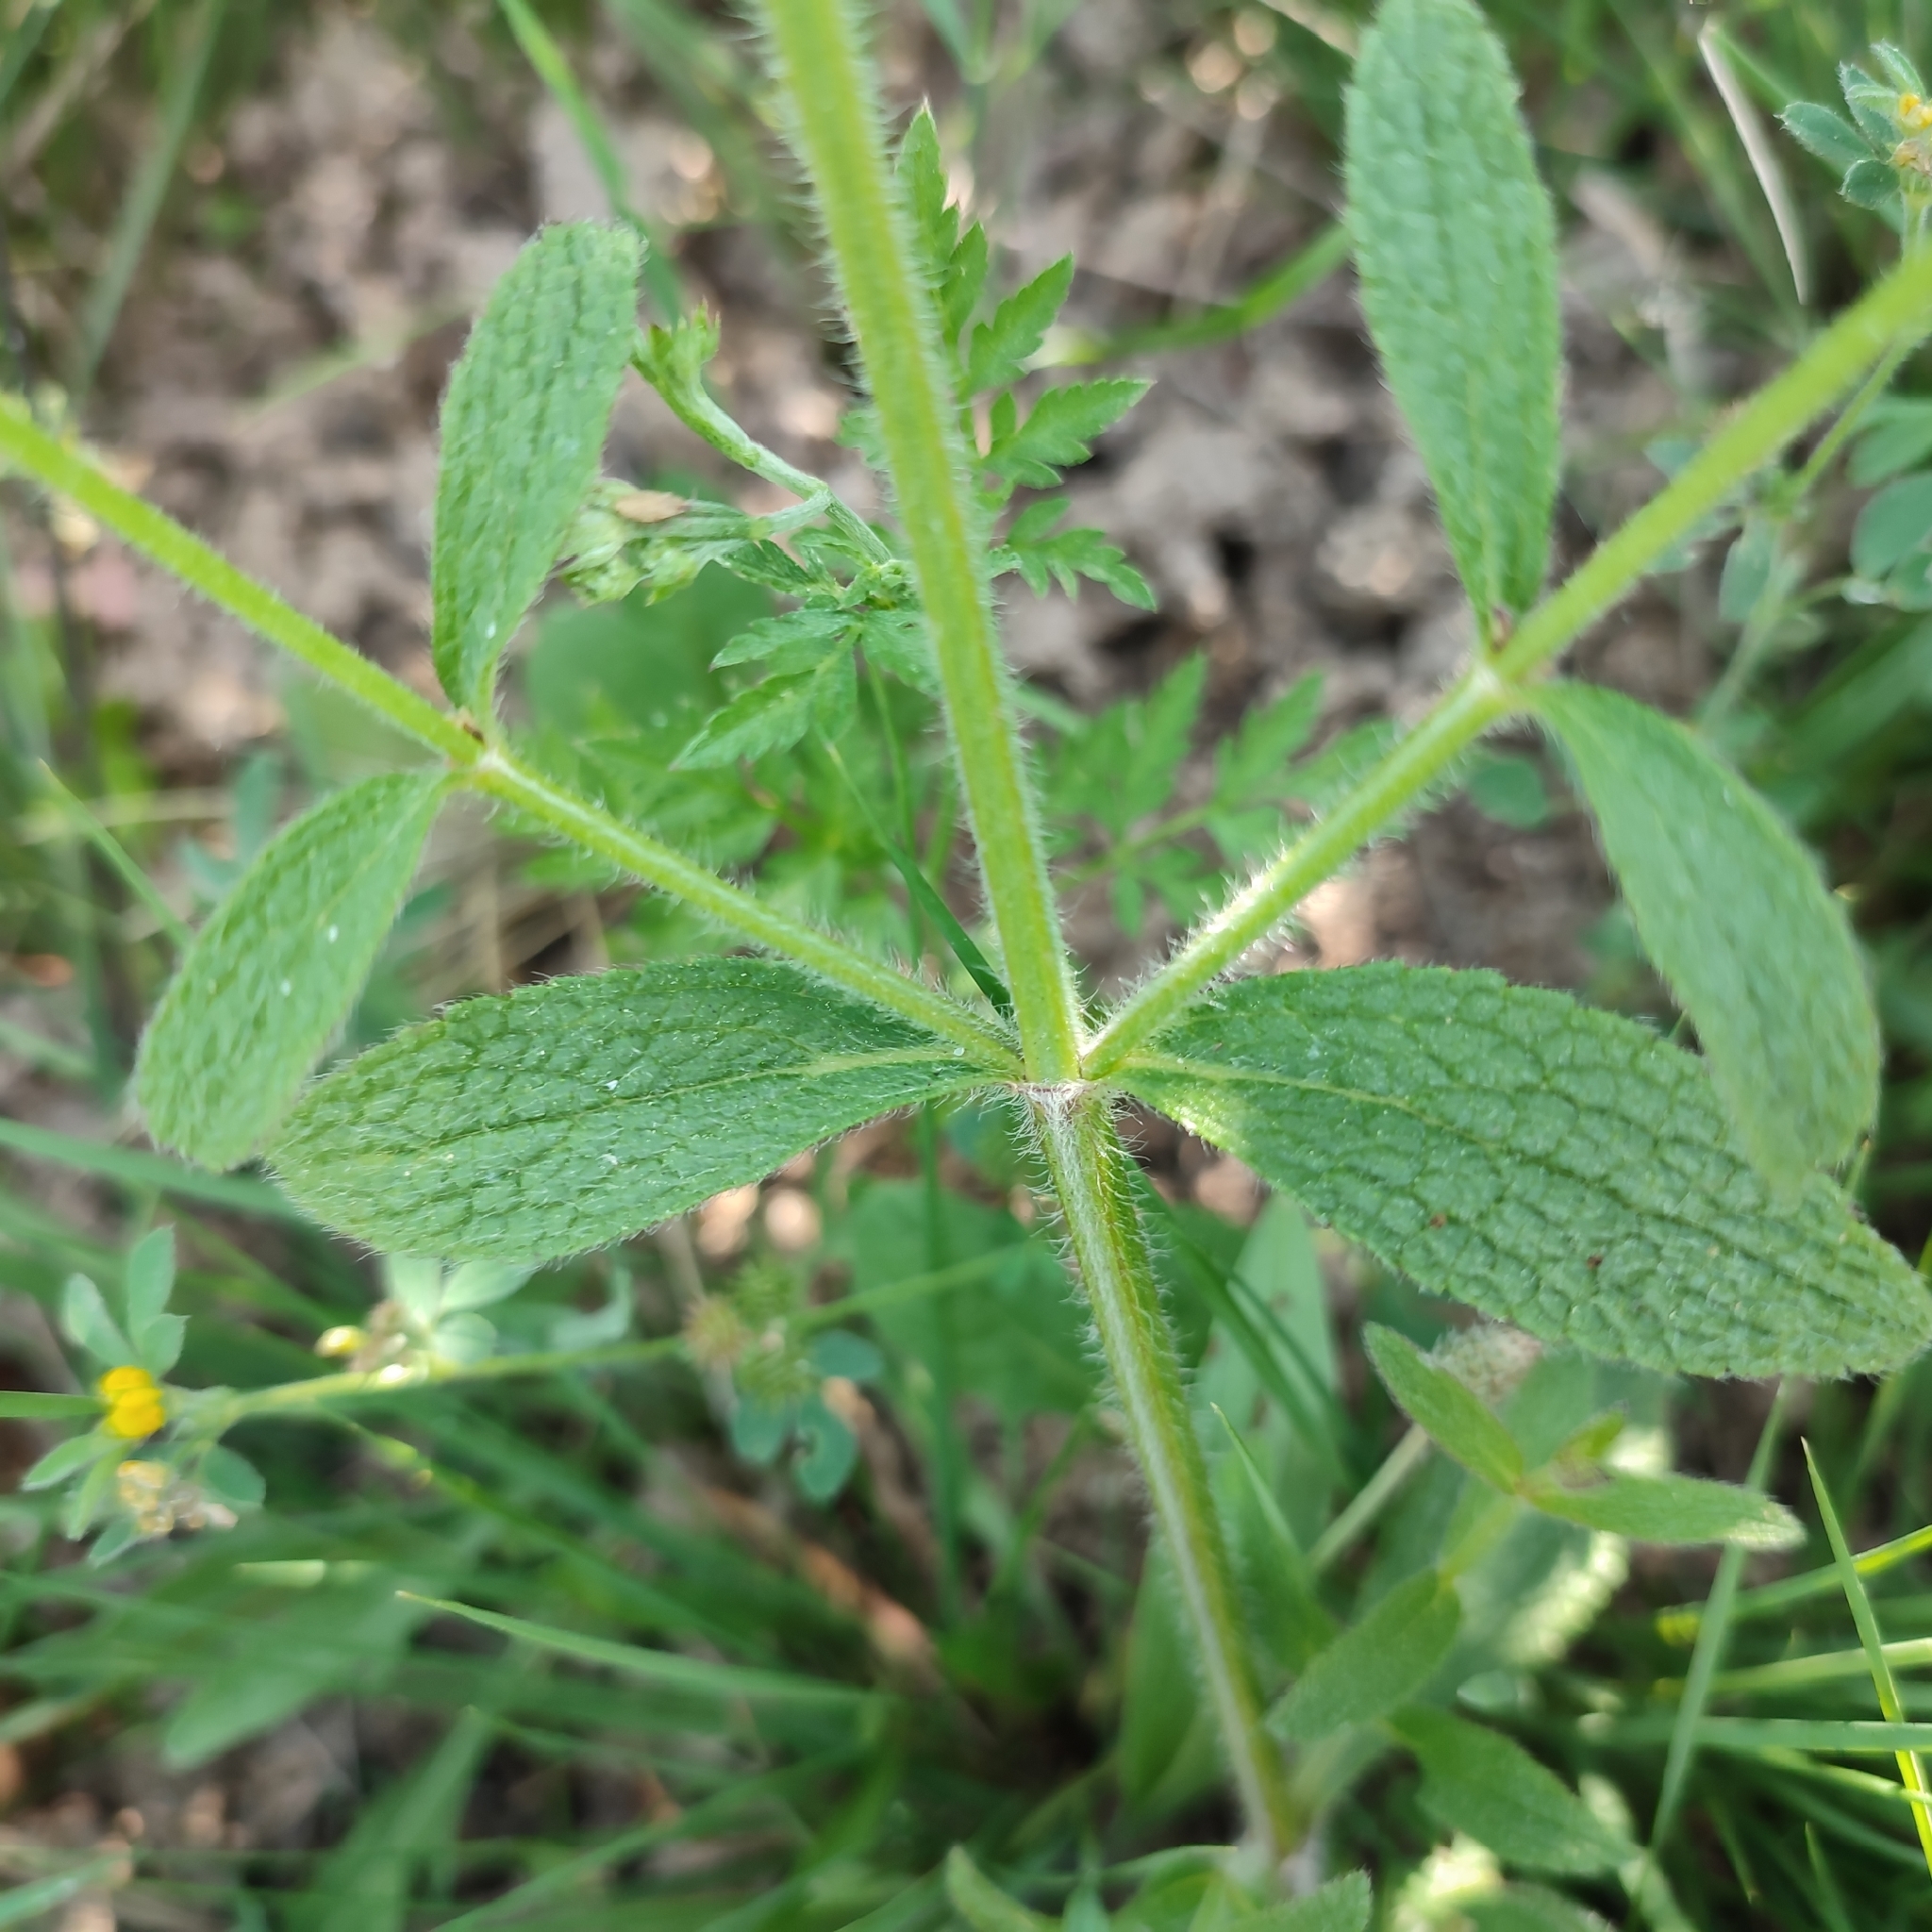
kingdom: Plantae
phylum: Tracheophyta
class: Magnoliopsida
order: Lamiales
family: Lamiaceae
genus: Stachys
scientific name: Stachys recta
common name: Perennial yellow-woundwort
